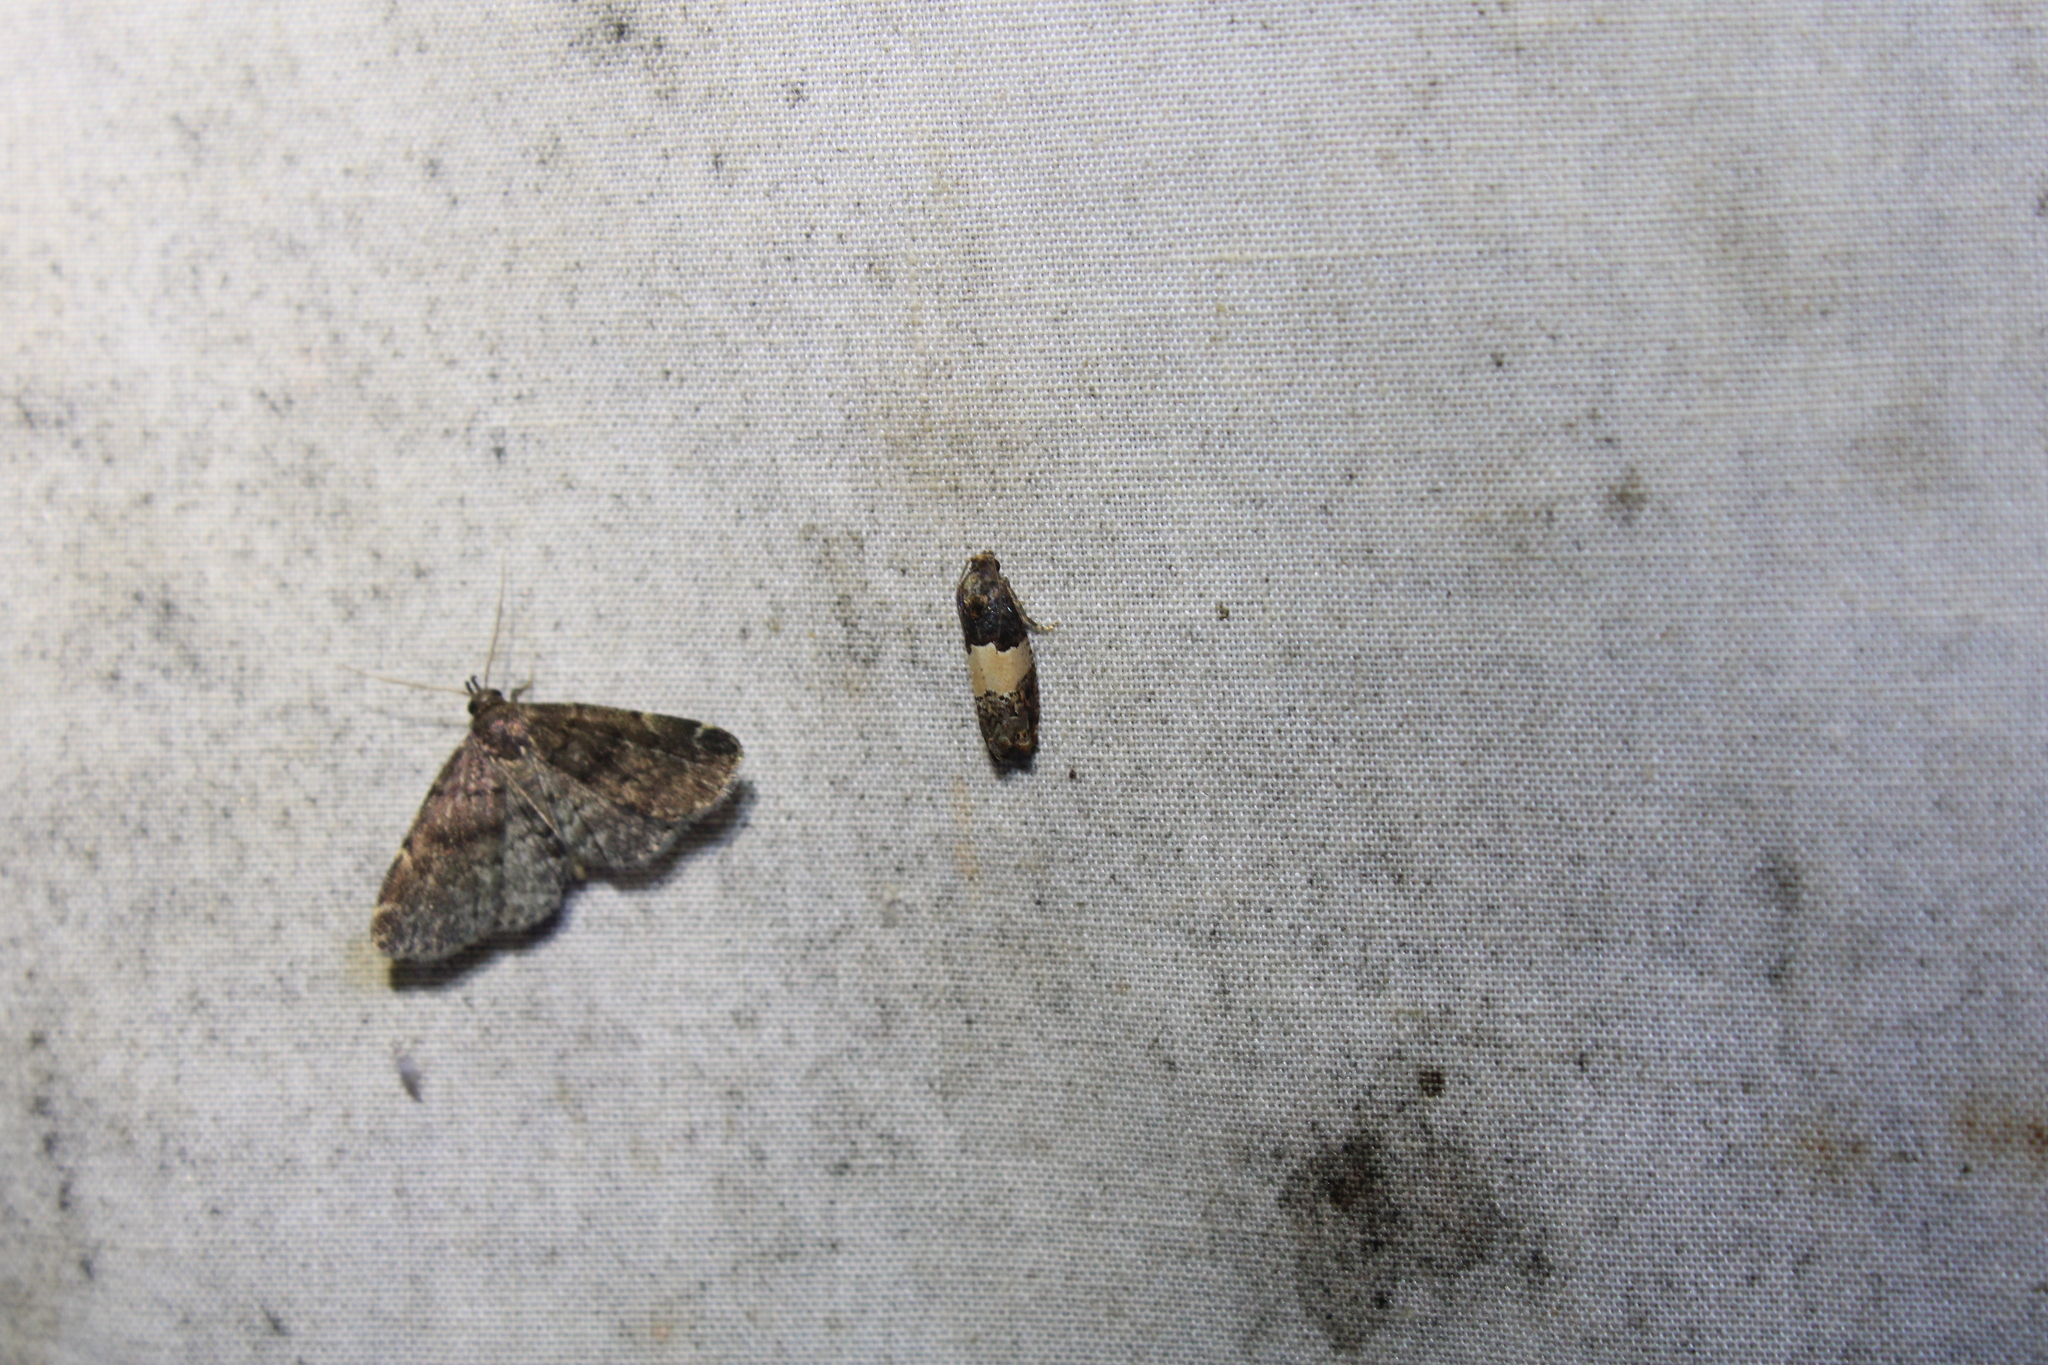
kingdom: Animalia
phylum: Arthropoda
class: Insecta
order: Lepidoptera
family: Tortricidae
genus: Epiblema
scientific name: Epiblema glenni
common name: Glenn's epiblema
